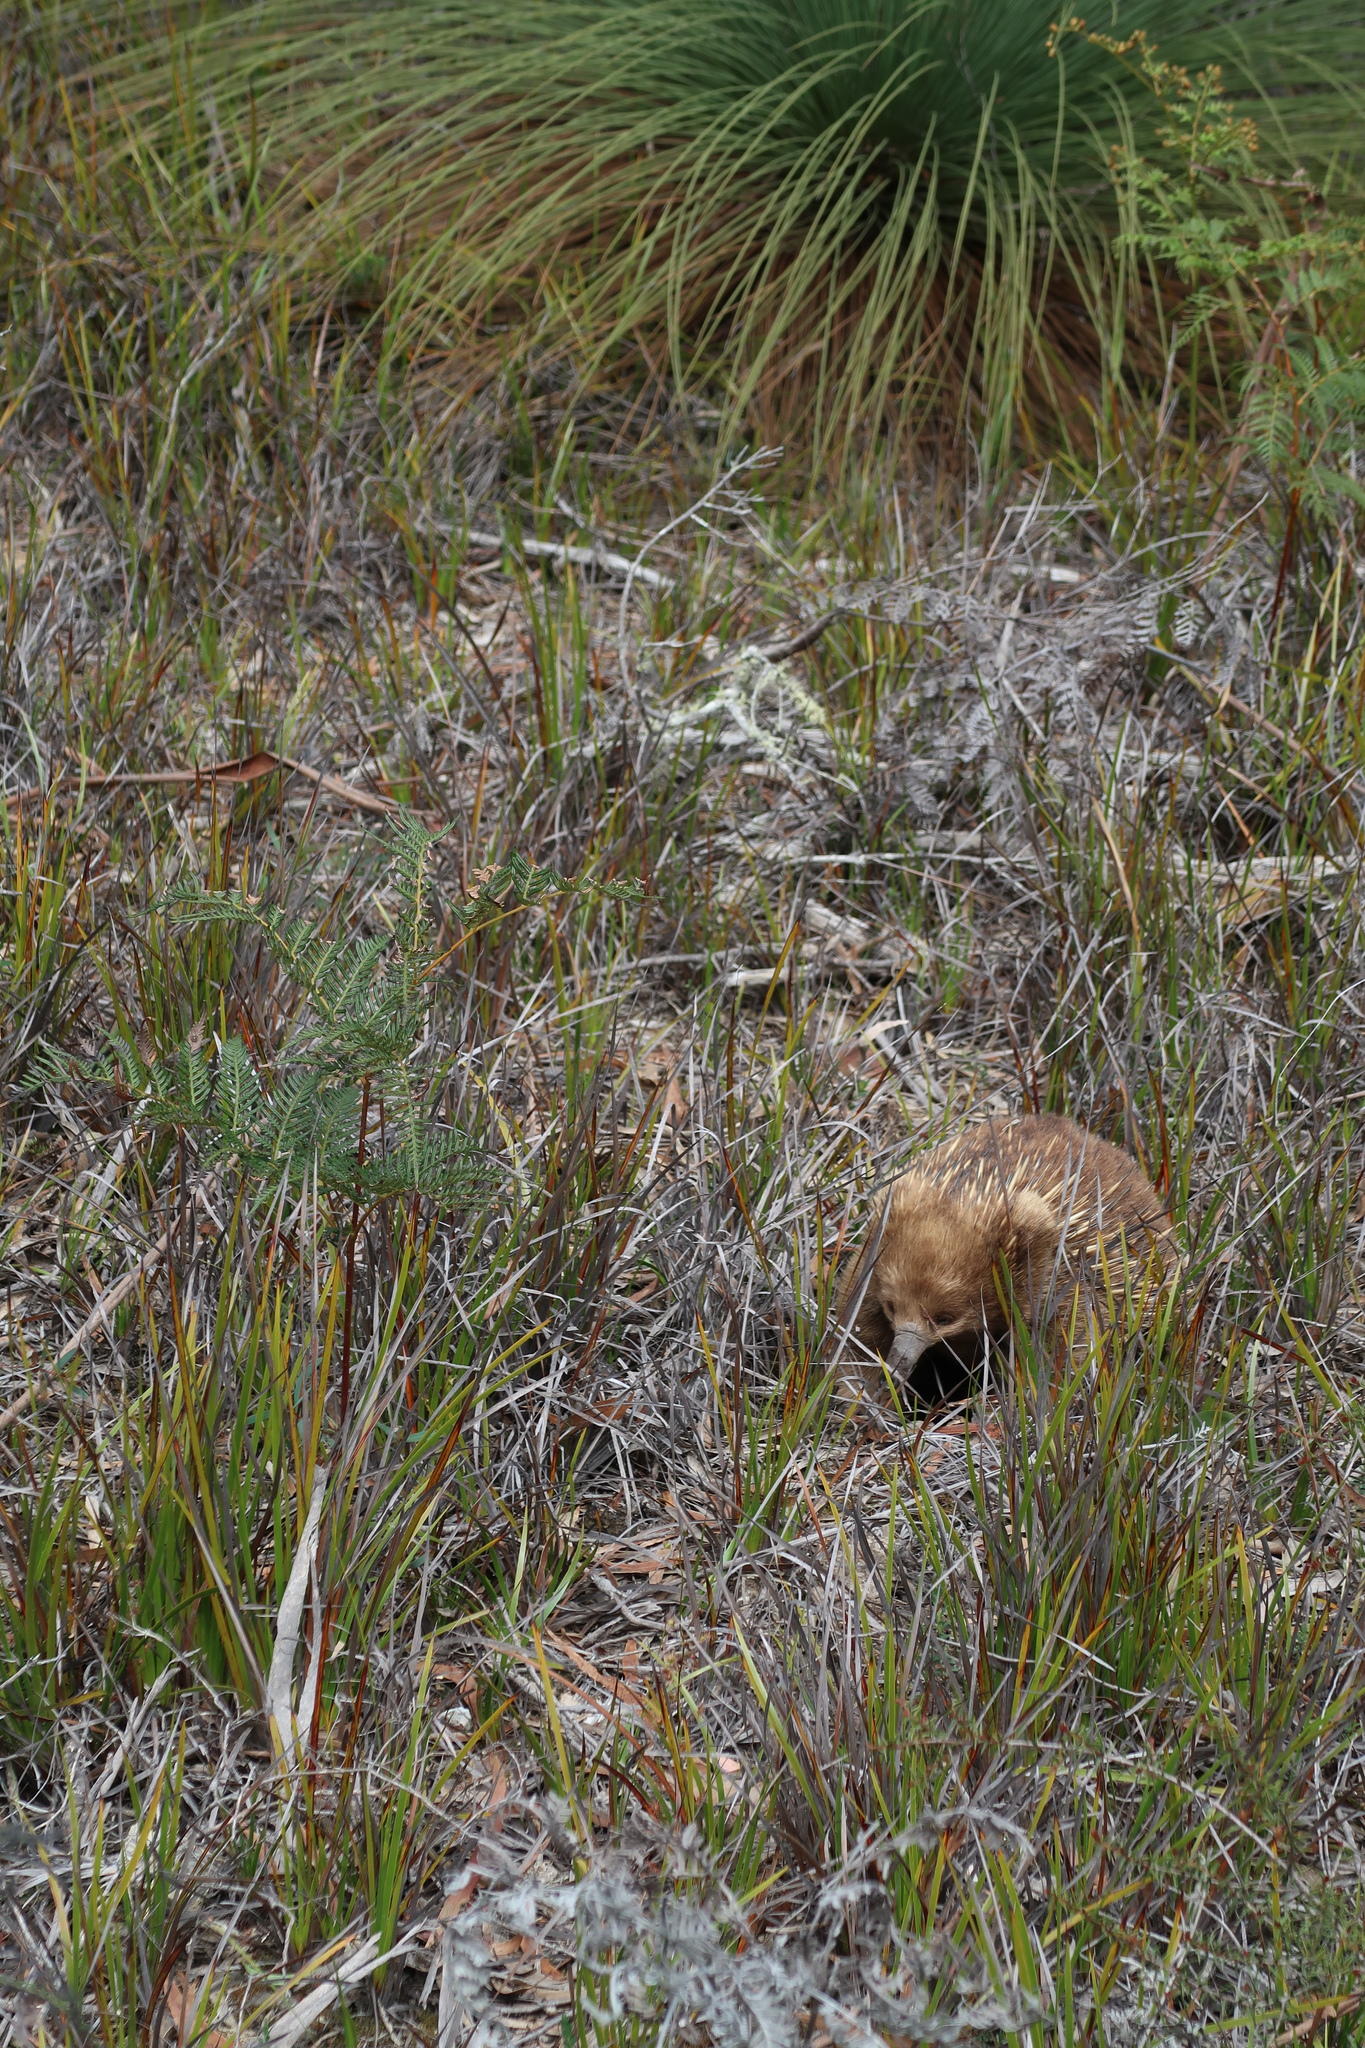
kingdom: Animalia
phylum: Chordata
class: Mammalia
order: Monotremata
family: Tachyglossidae
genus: Tachyglossus
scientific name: Tachyglossus aculeatus
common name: Short-beaked echidna
